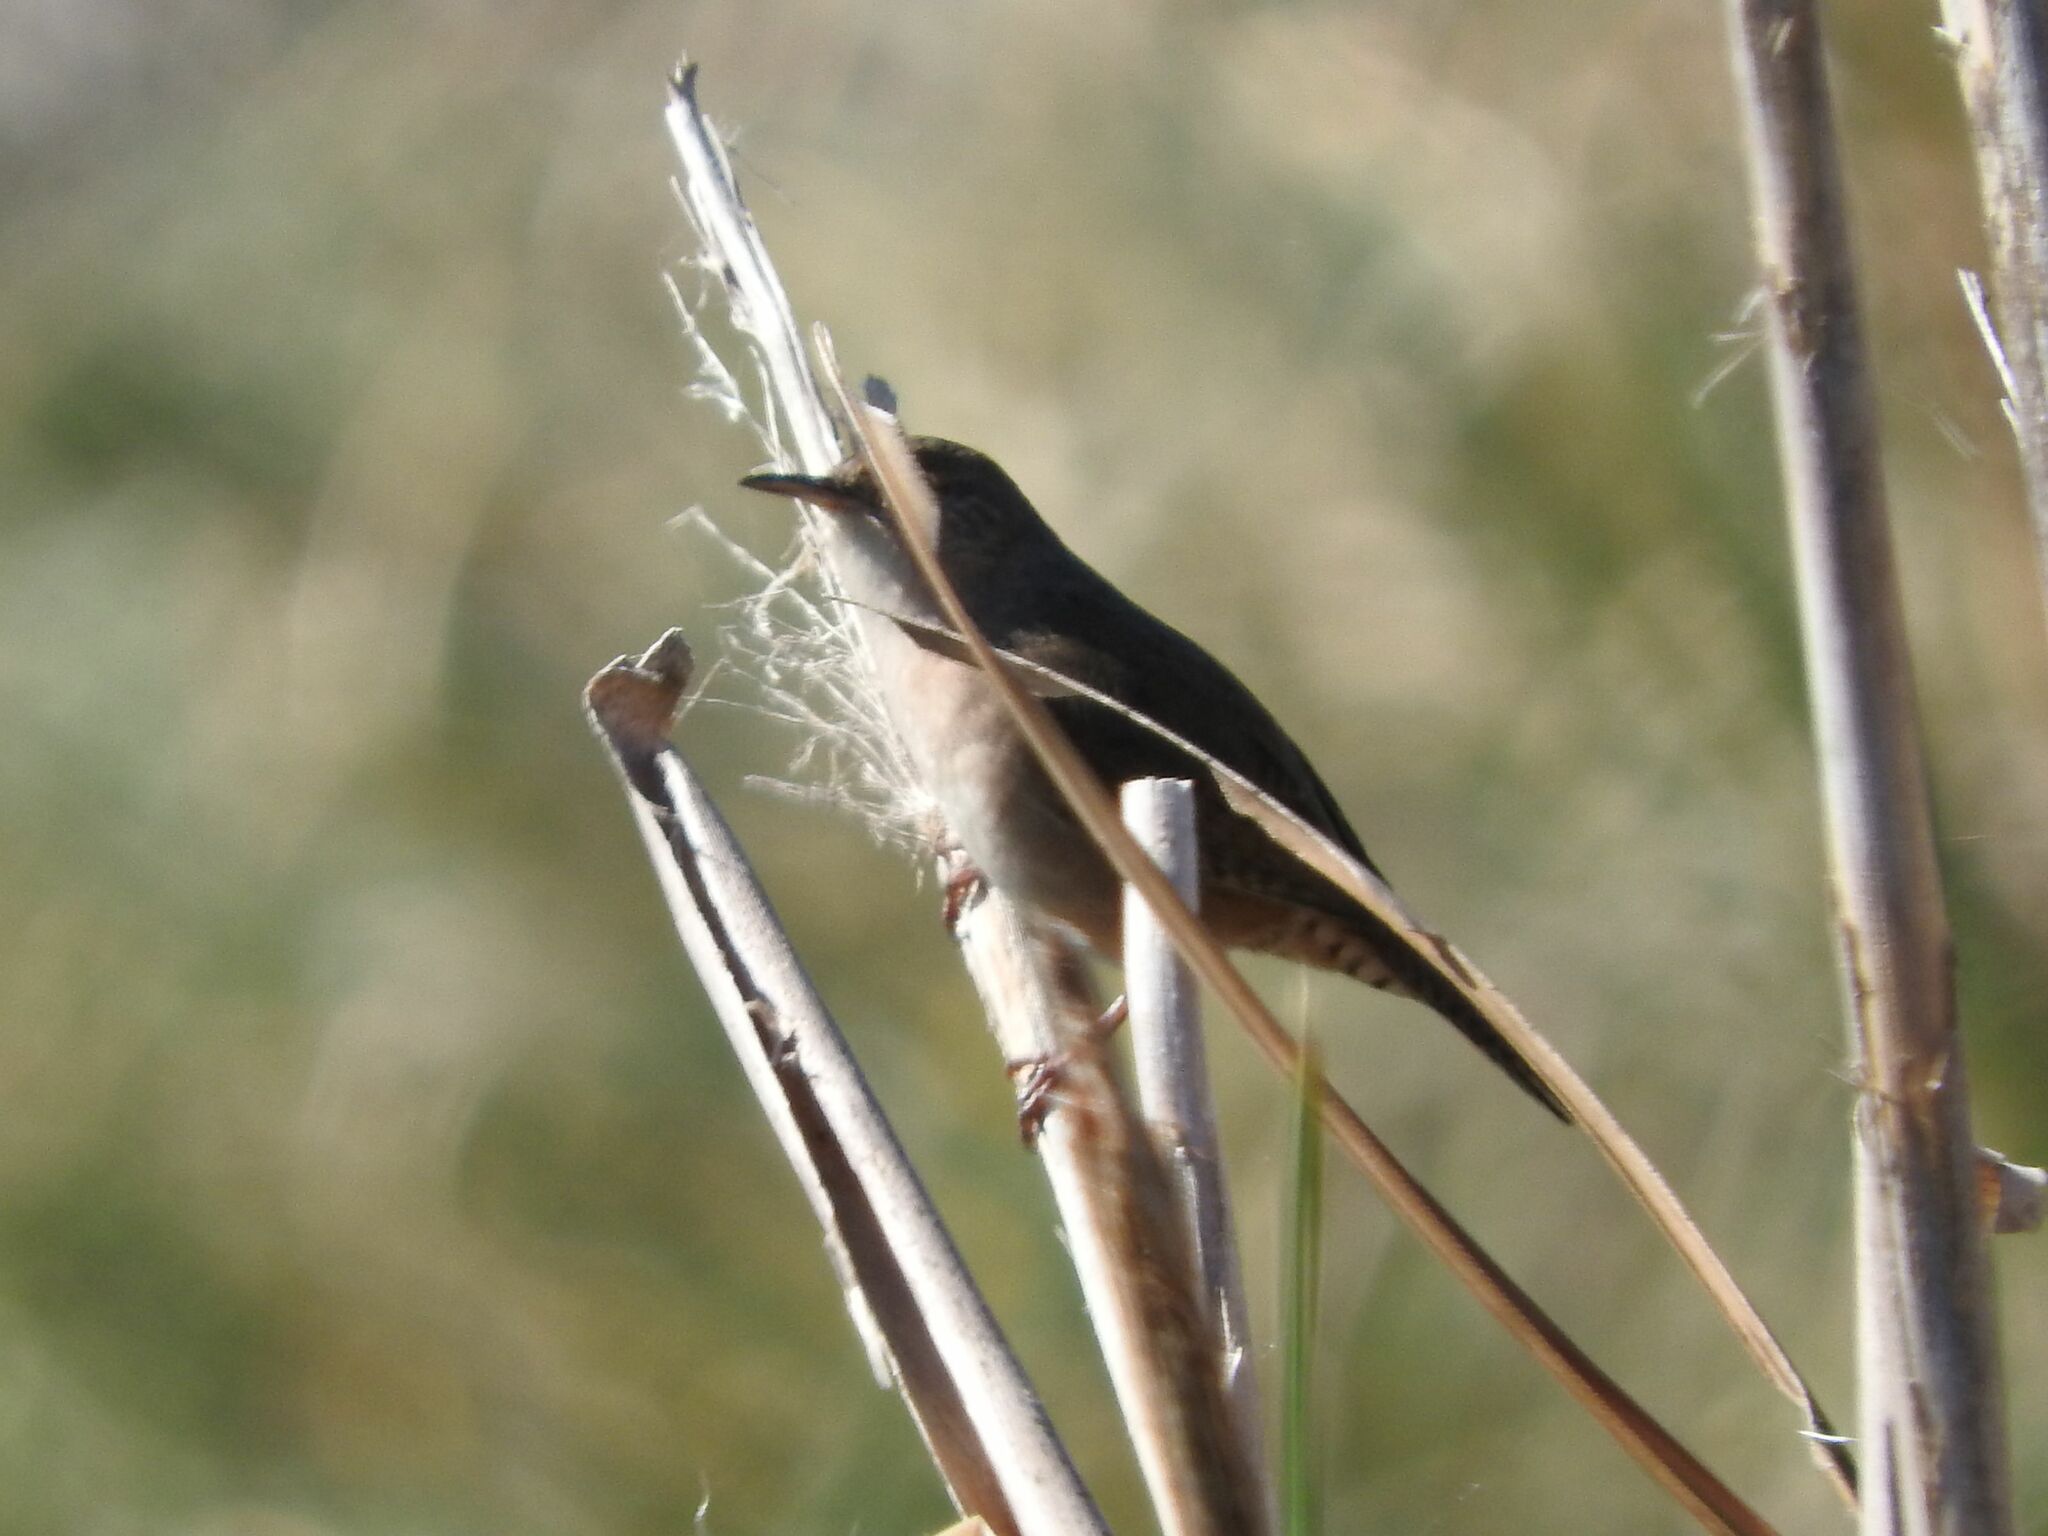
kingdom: Animalia
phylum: Chordata
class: Aves
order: Passeriformes
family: Troglodytidae
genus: Troglodytes
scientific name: Troglodytes aedon
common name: House wren
